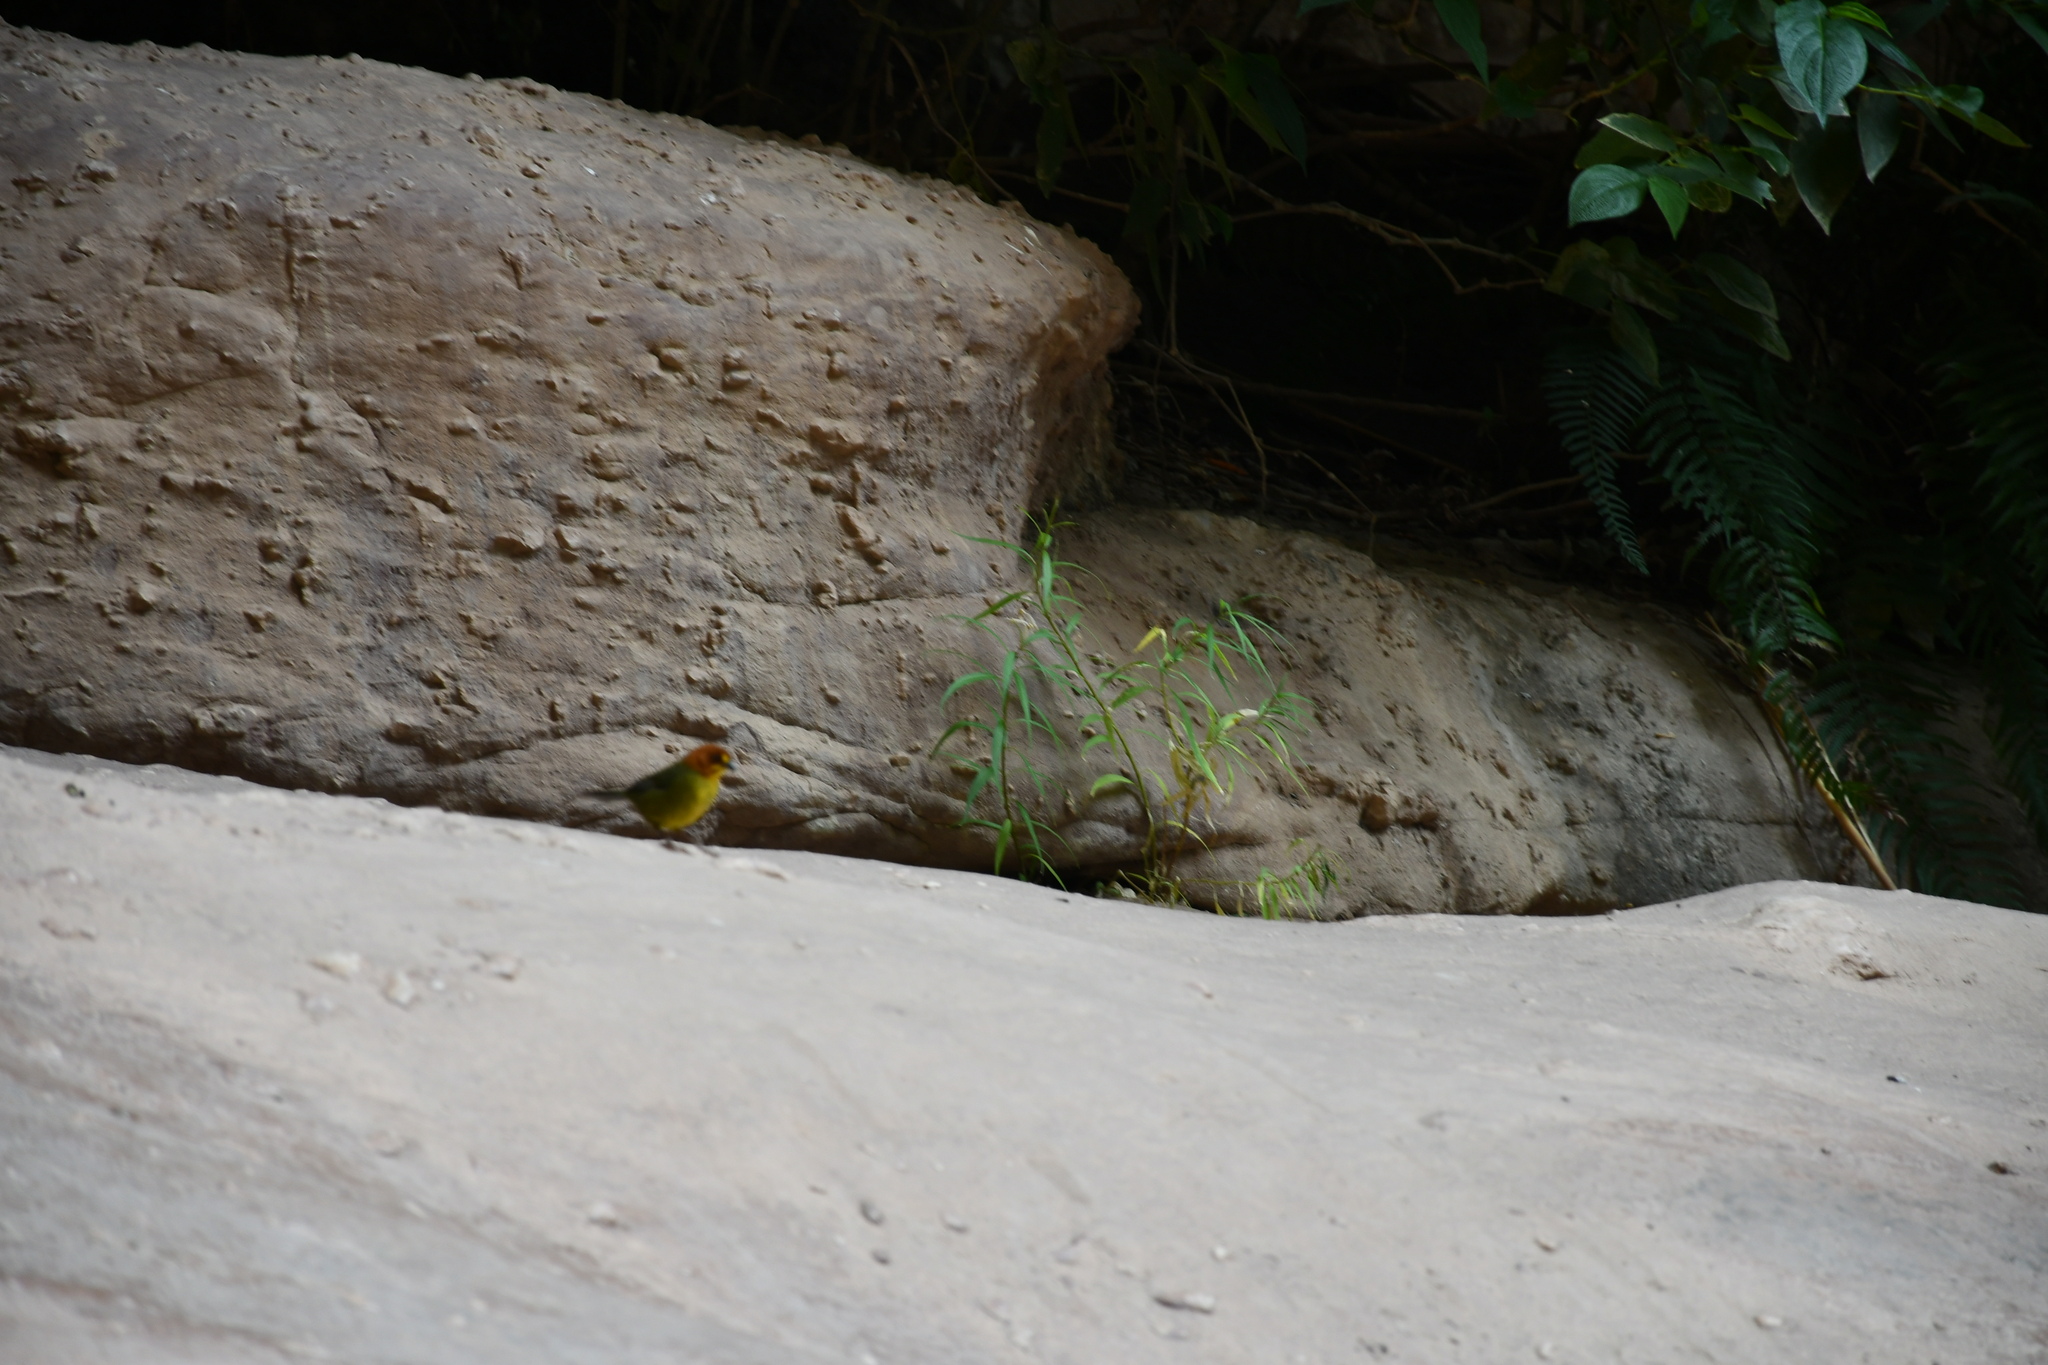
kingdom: Animalia
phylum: Chordata
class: Aves
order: Passeriformes
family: Passerellidae
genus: Atlapetes
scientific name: Atlapetes fulviceps
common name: Fulvous-headed brushfinch
